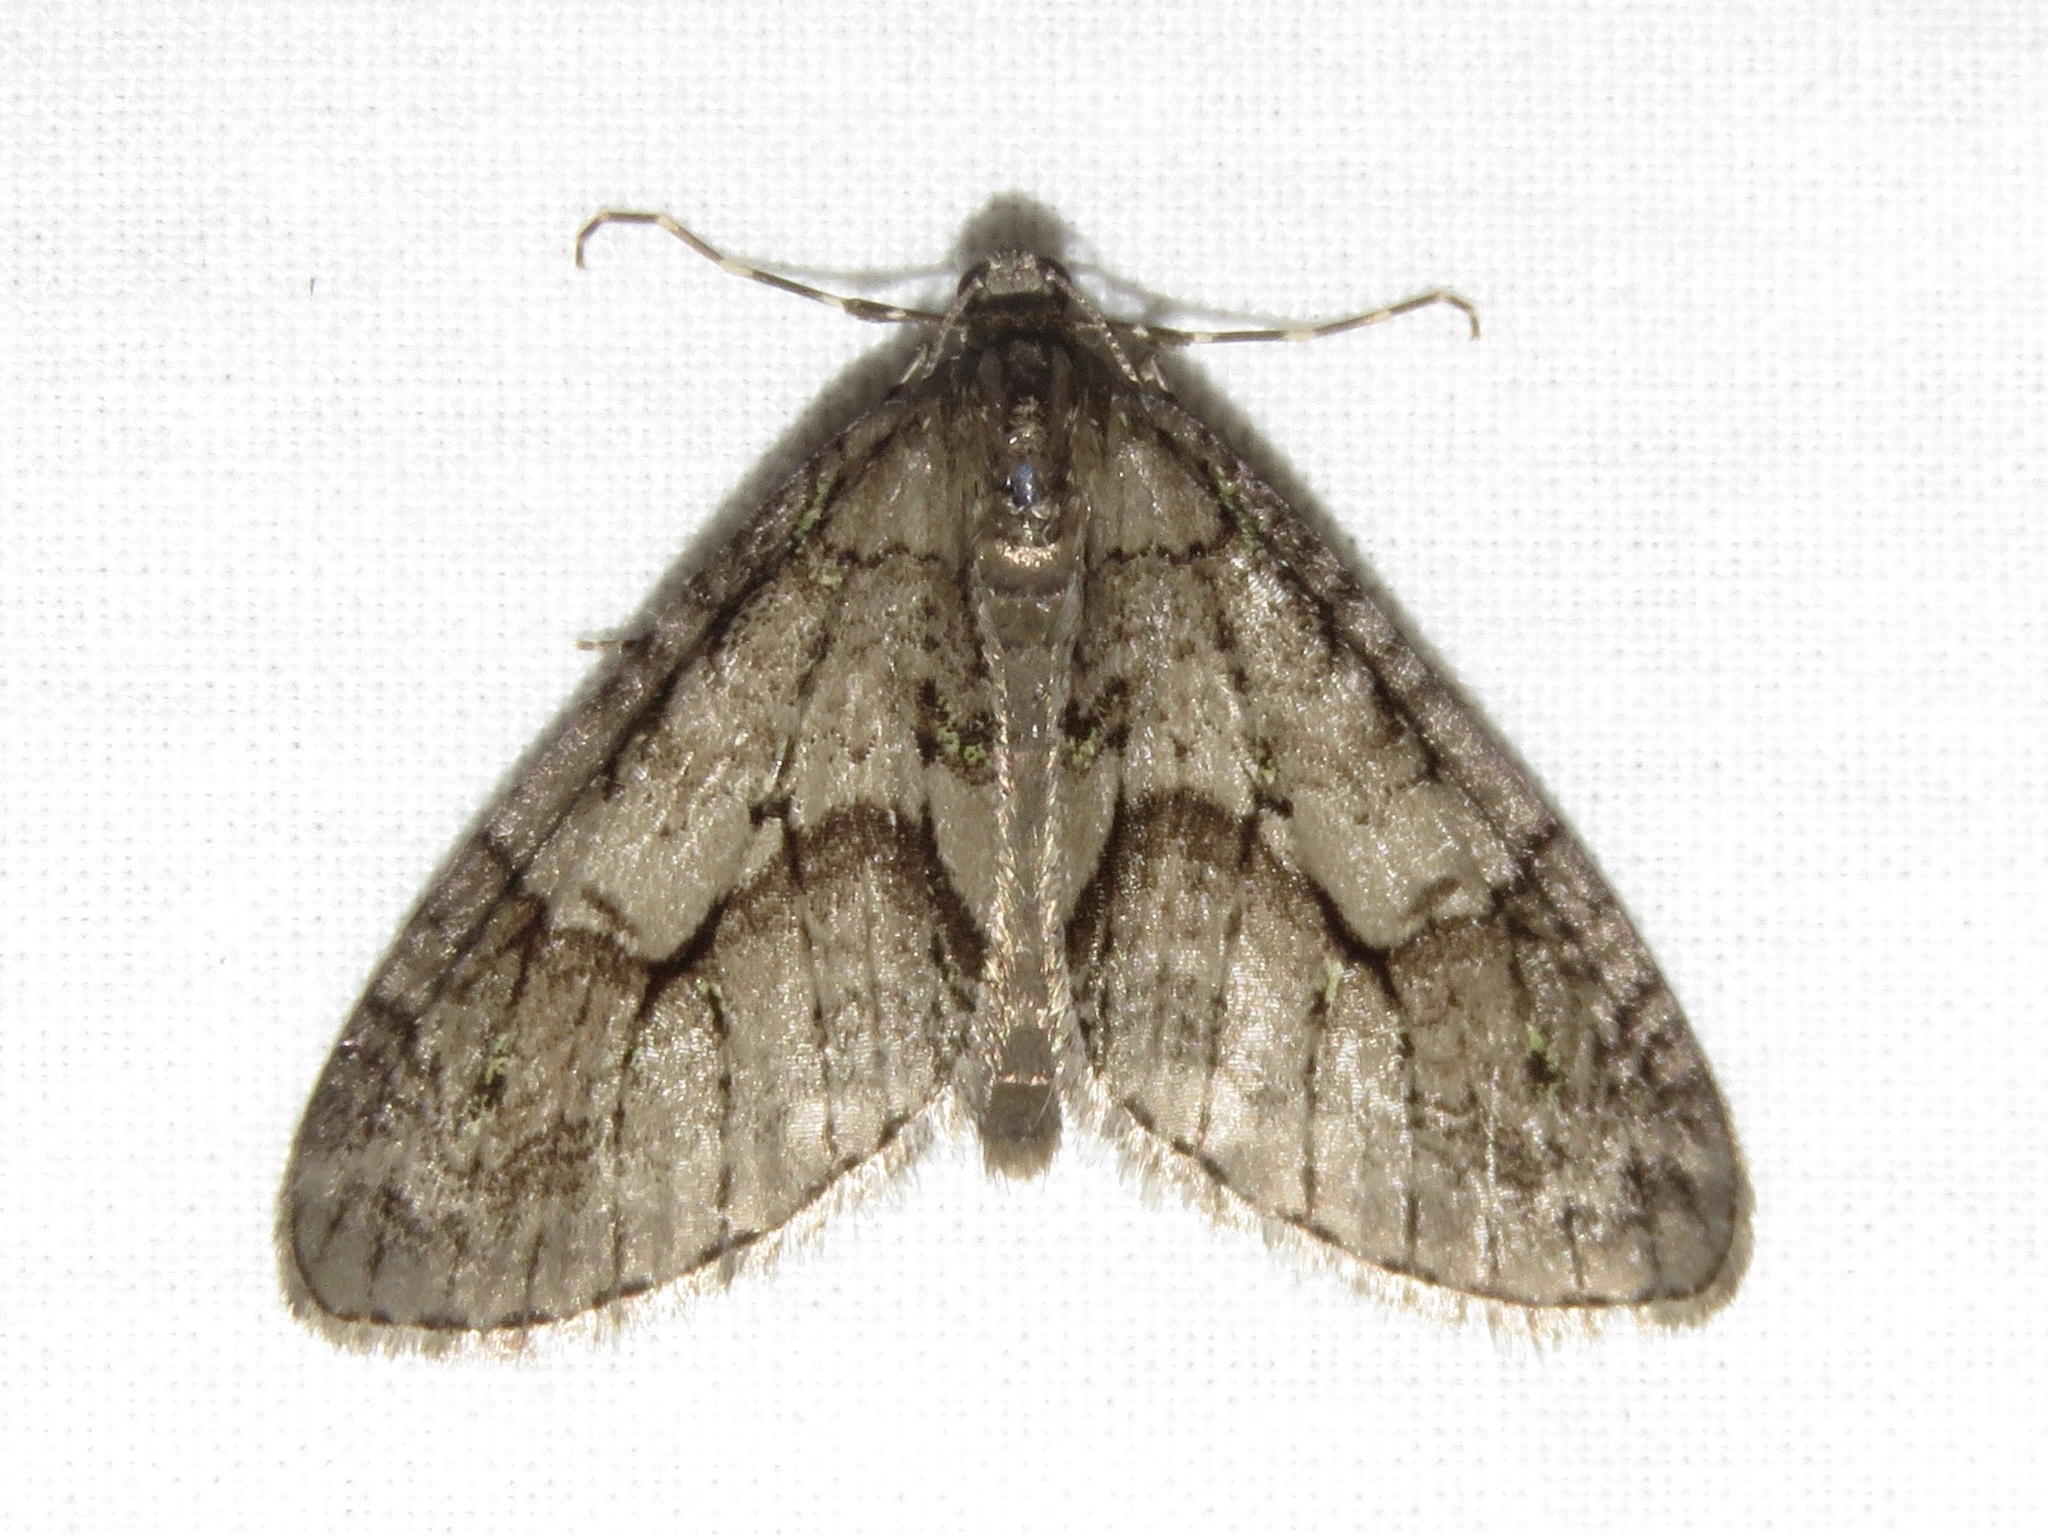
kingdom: Animalia
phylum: Arthropoda
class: Insecta
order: Lepidoptera
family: Geometridae
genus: Cladara
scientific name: Cladara limitaria
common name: Mottled gray carpet
